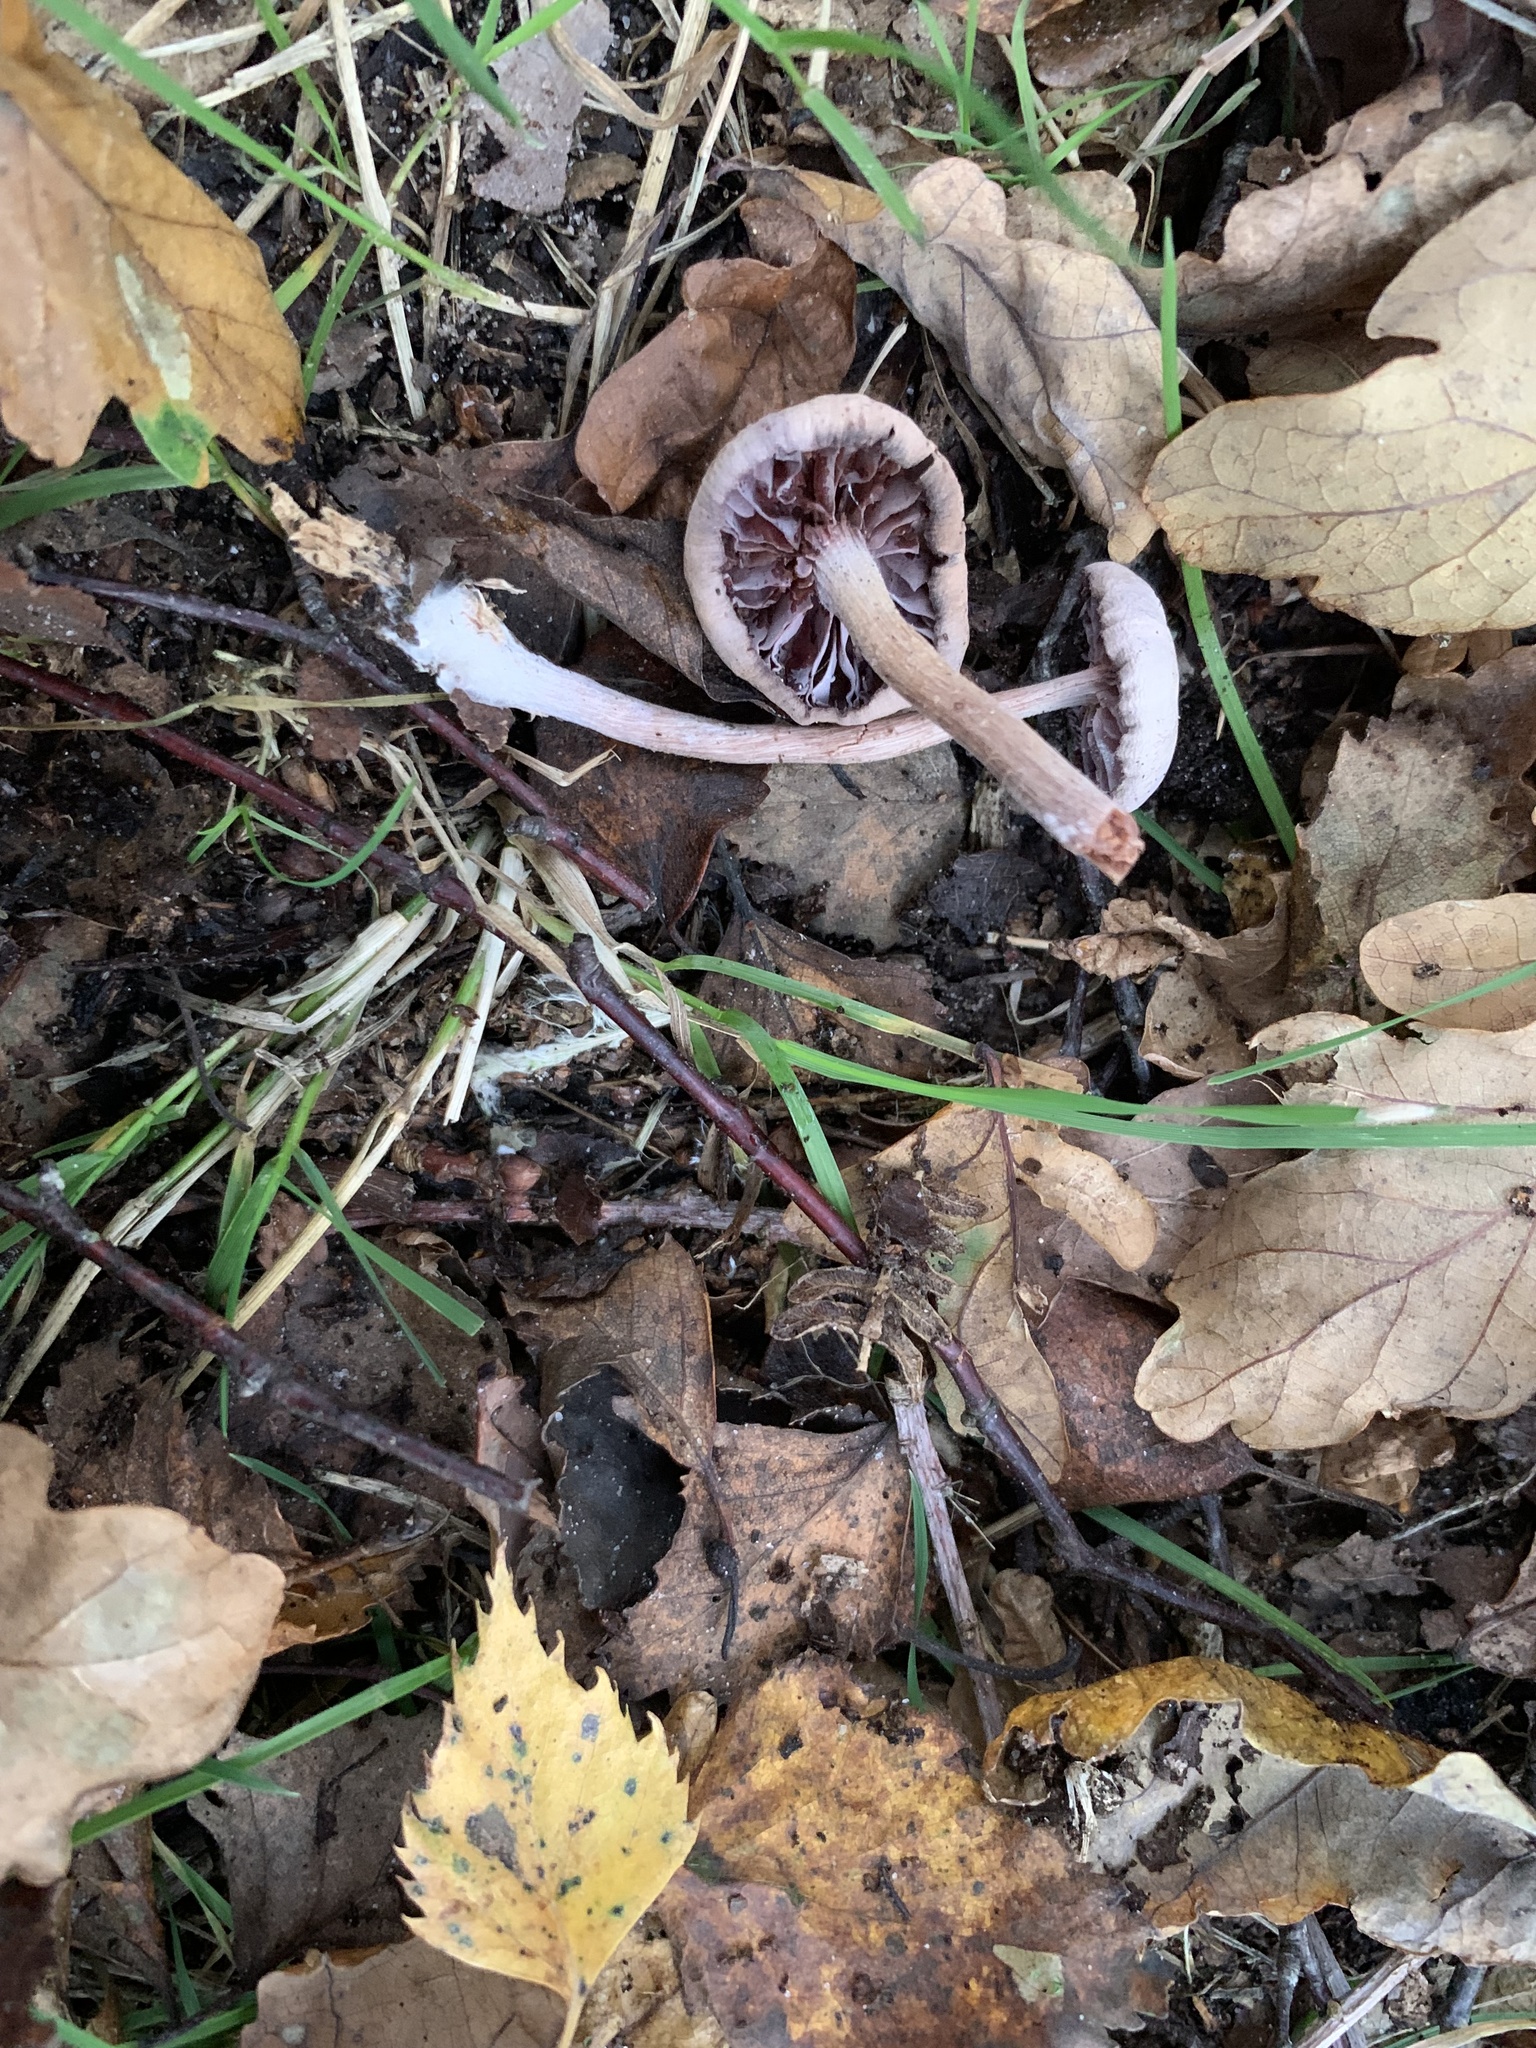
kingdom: Fungi
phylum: Basidiomycota
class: Agaricomycetes
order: Agaricales
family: Hydnangiaceae
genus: Laccaria
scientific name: Laccaria amethystina
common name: Amethyst deceiver
